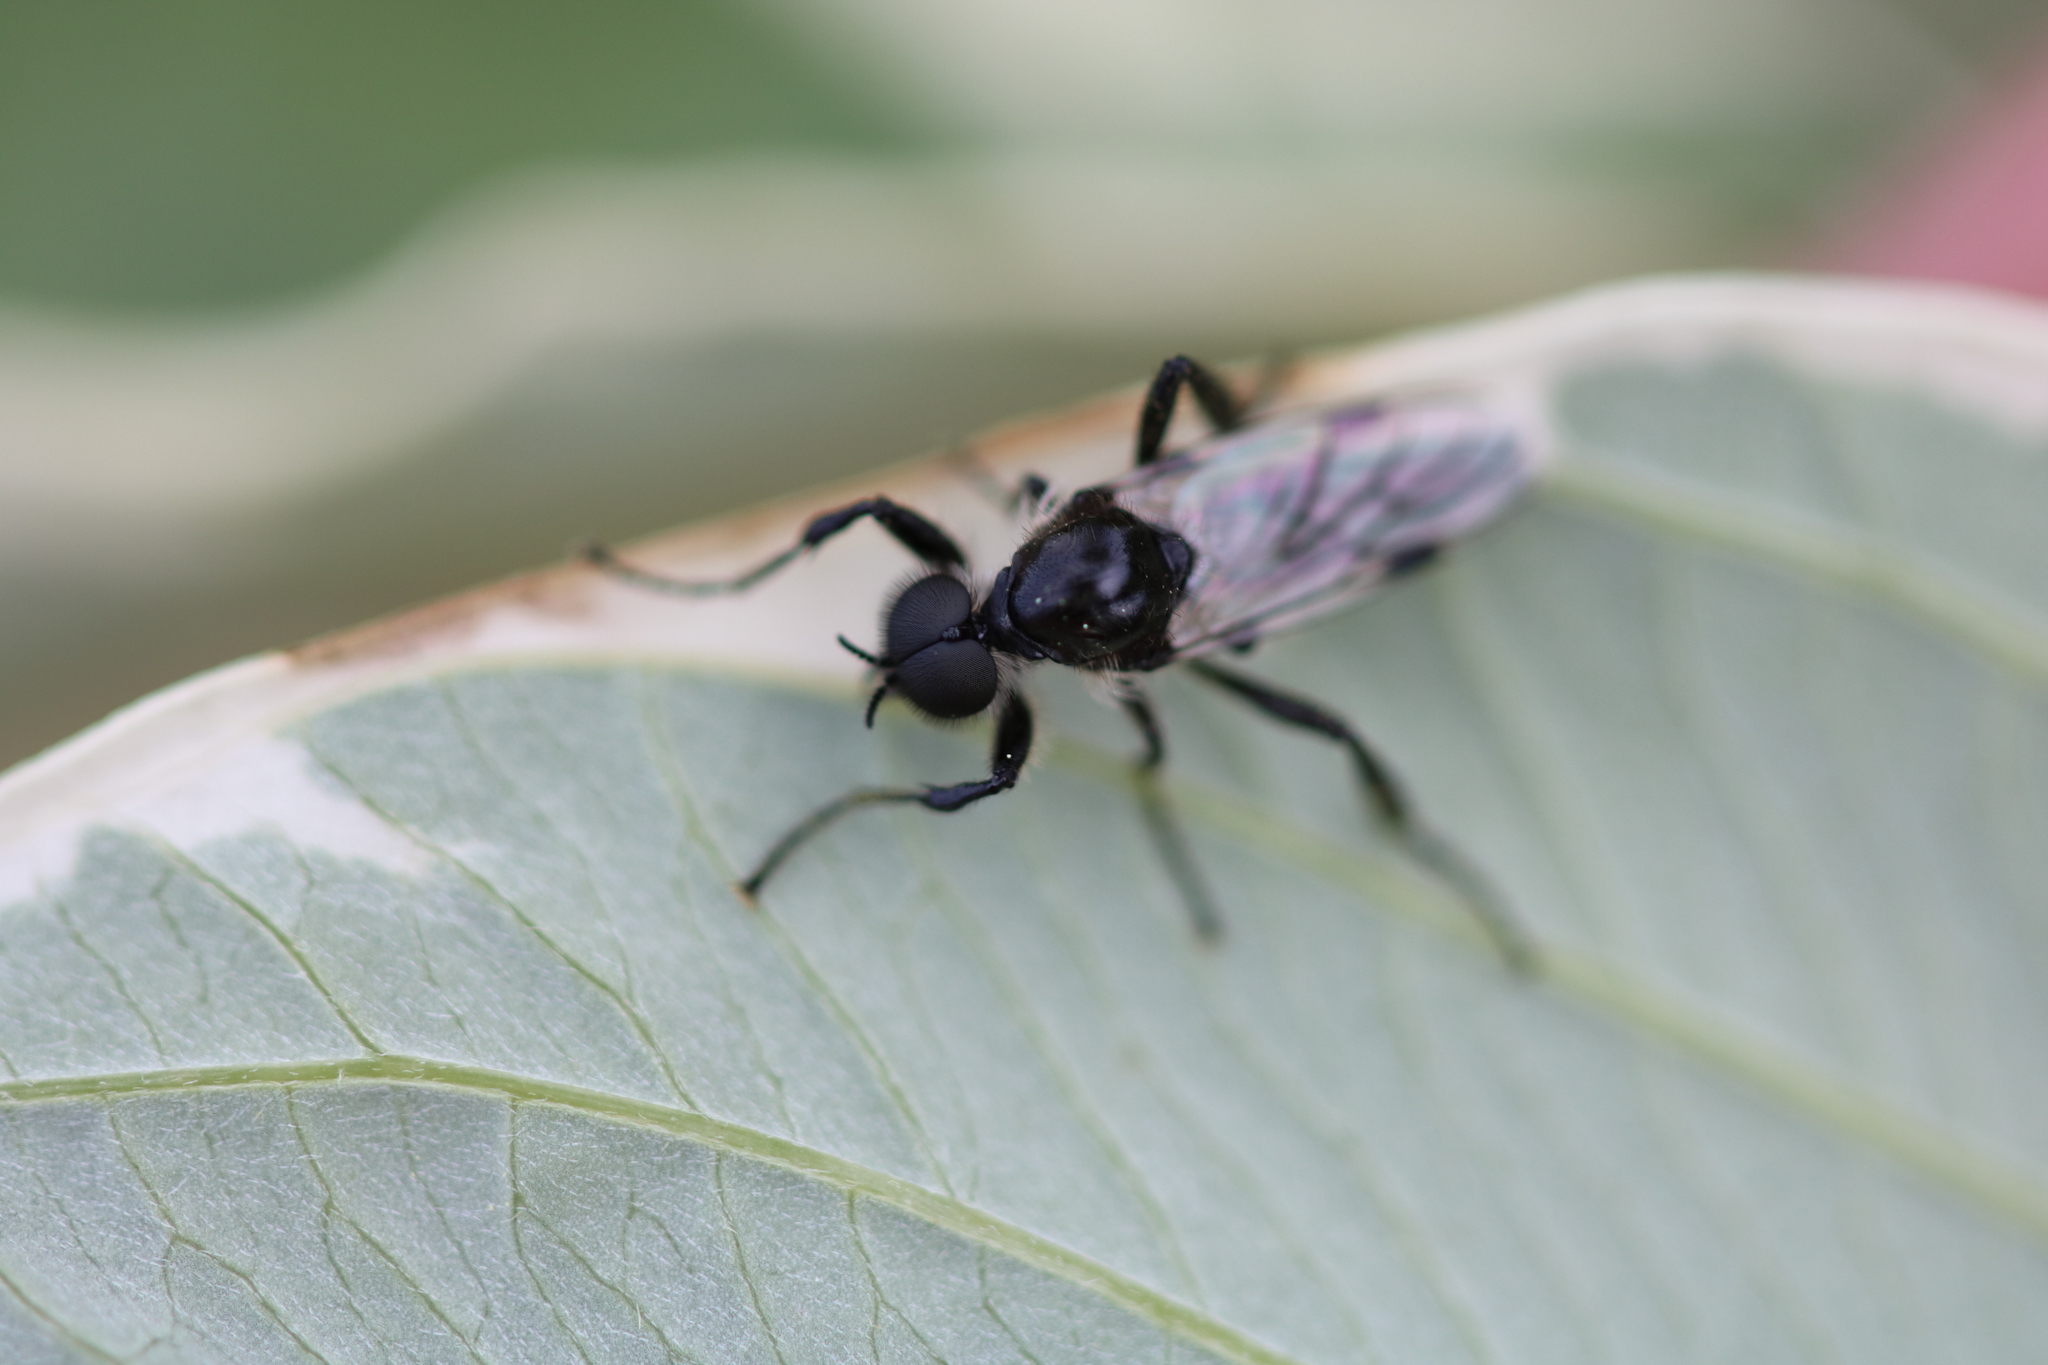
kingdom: Animalia
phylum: Arthropoda
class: Insecta
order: Diptera
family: Bibionidae
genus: Bibio
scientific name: Bibio albipennis
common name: White-winged march fly
